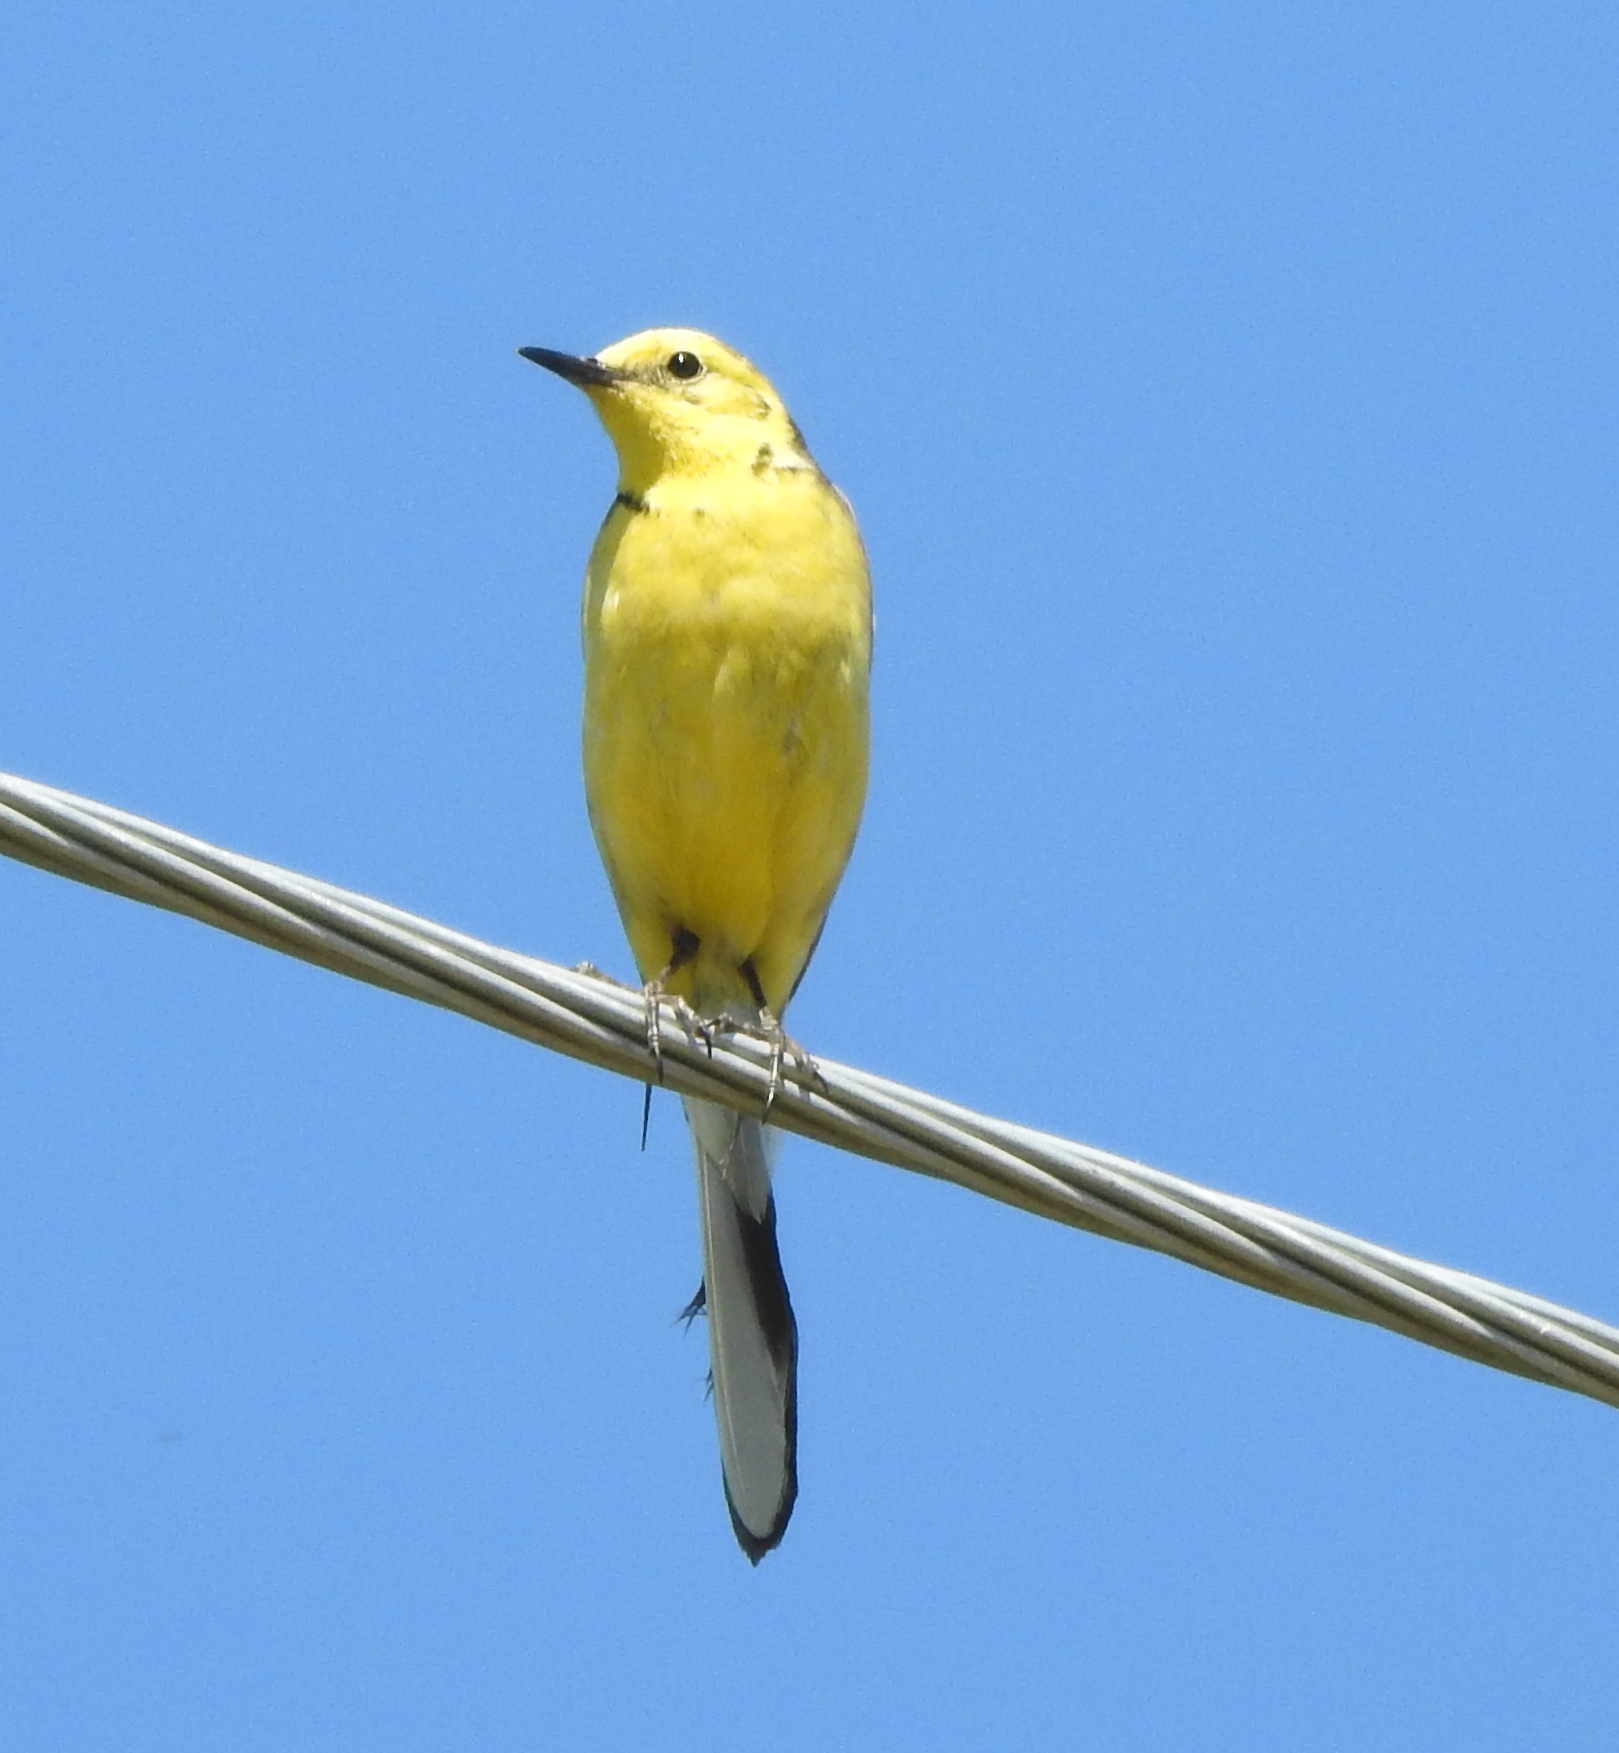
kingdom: Animalia
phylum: Chordata
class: Aves
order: Passeriformes
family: Motacillidae
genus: Motacilla
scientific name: Motacilla citreola
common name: Citrine wagtail
